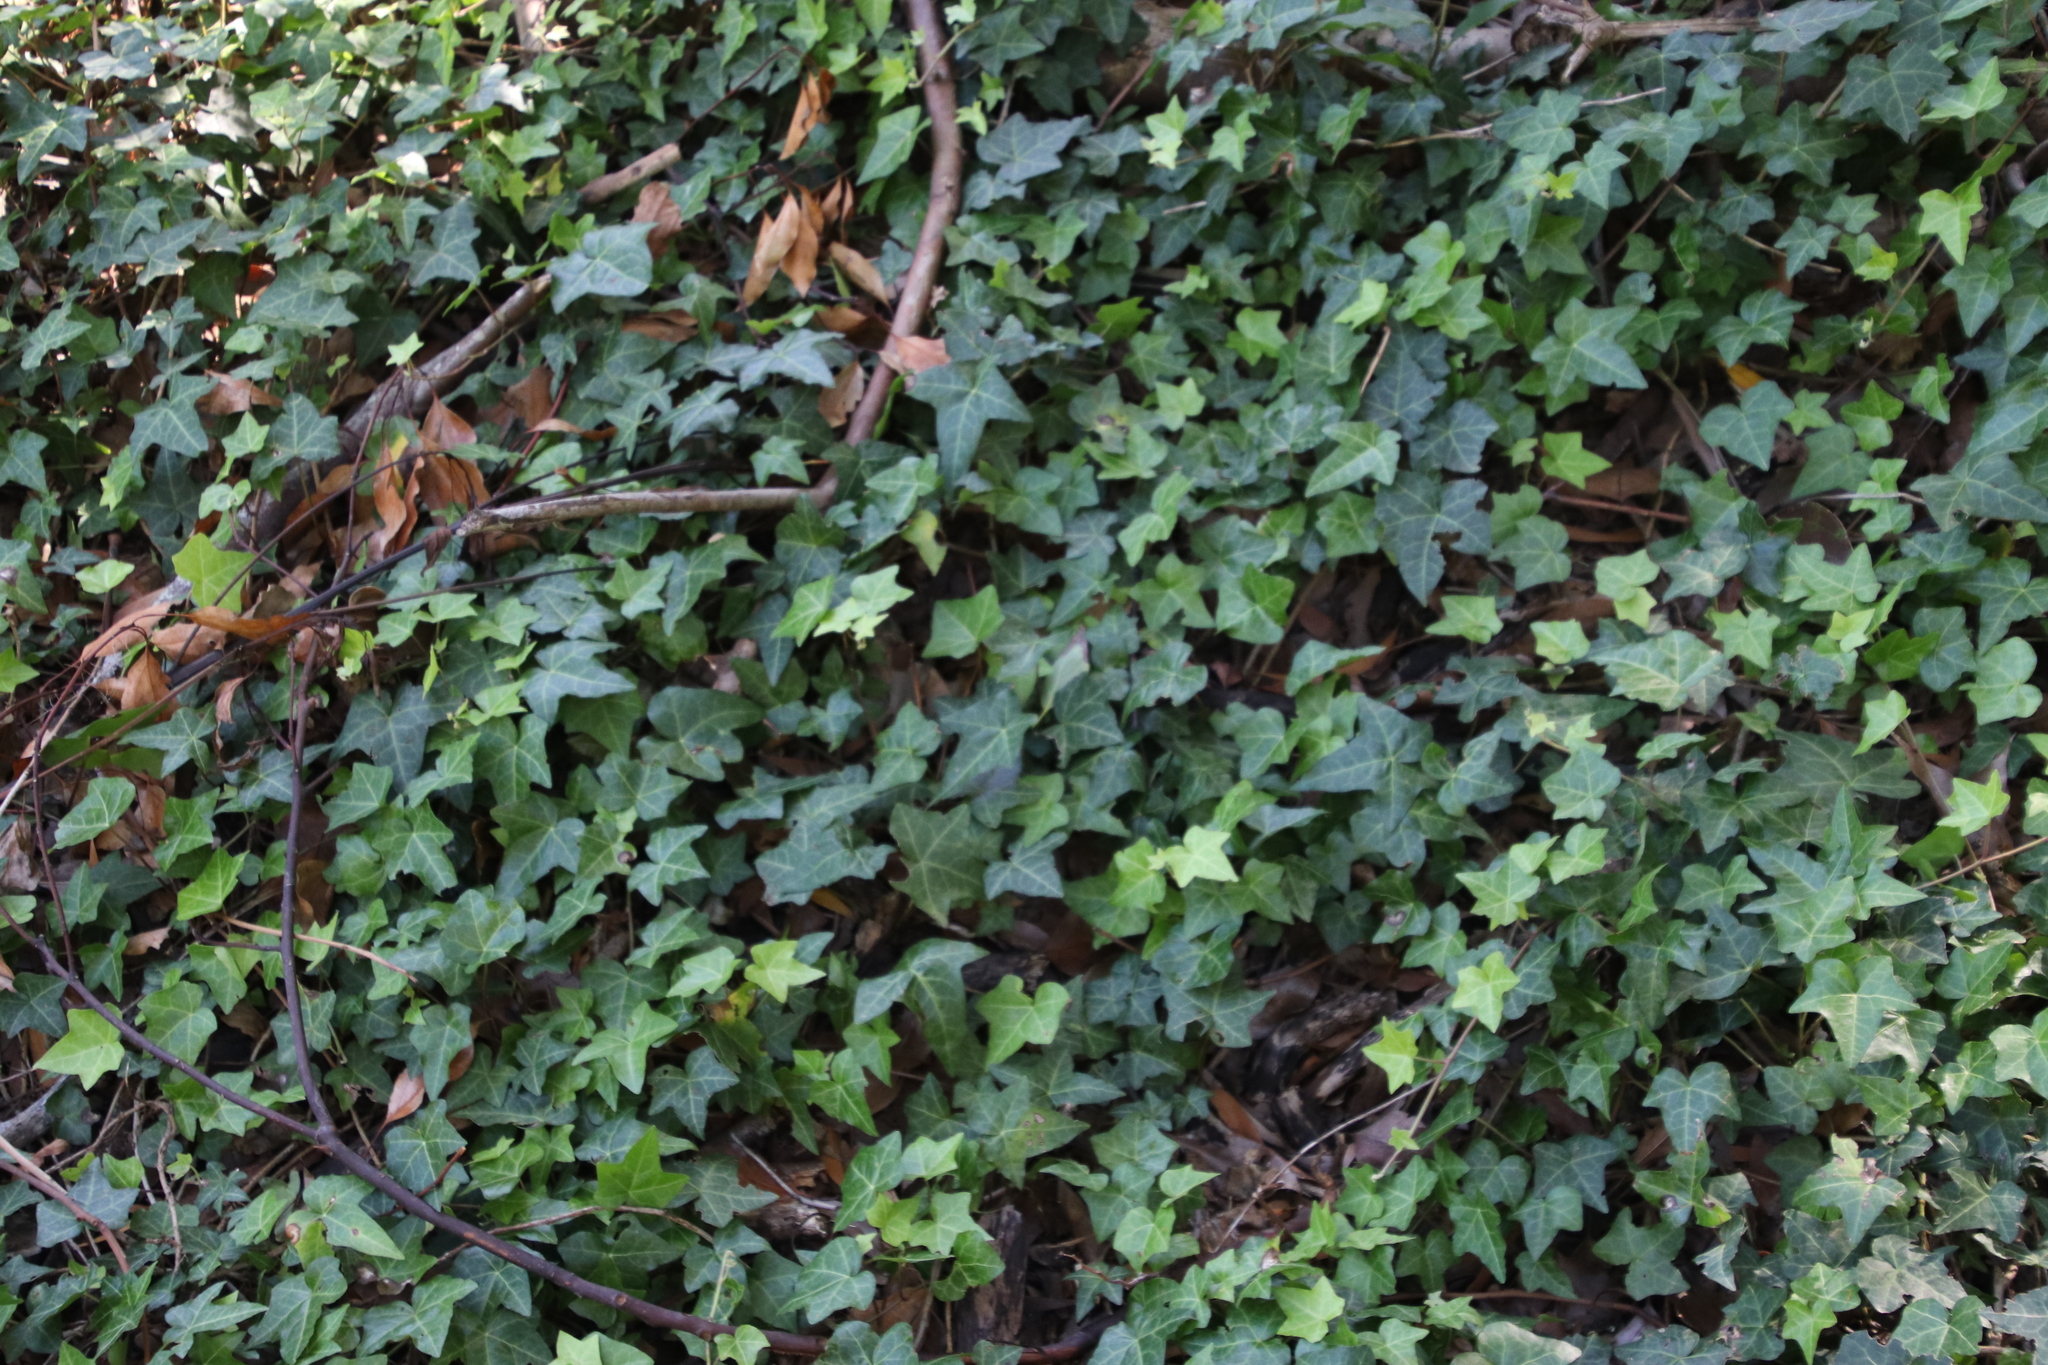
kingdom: Plantae
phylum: Tracheophyta
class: Magnoliopsida
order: Apiales
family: Araliaceae
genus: Hedera
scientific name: Hedera helix
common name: Ivy
